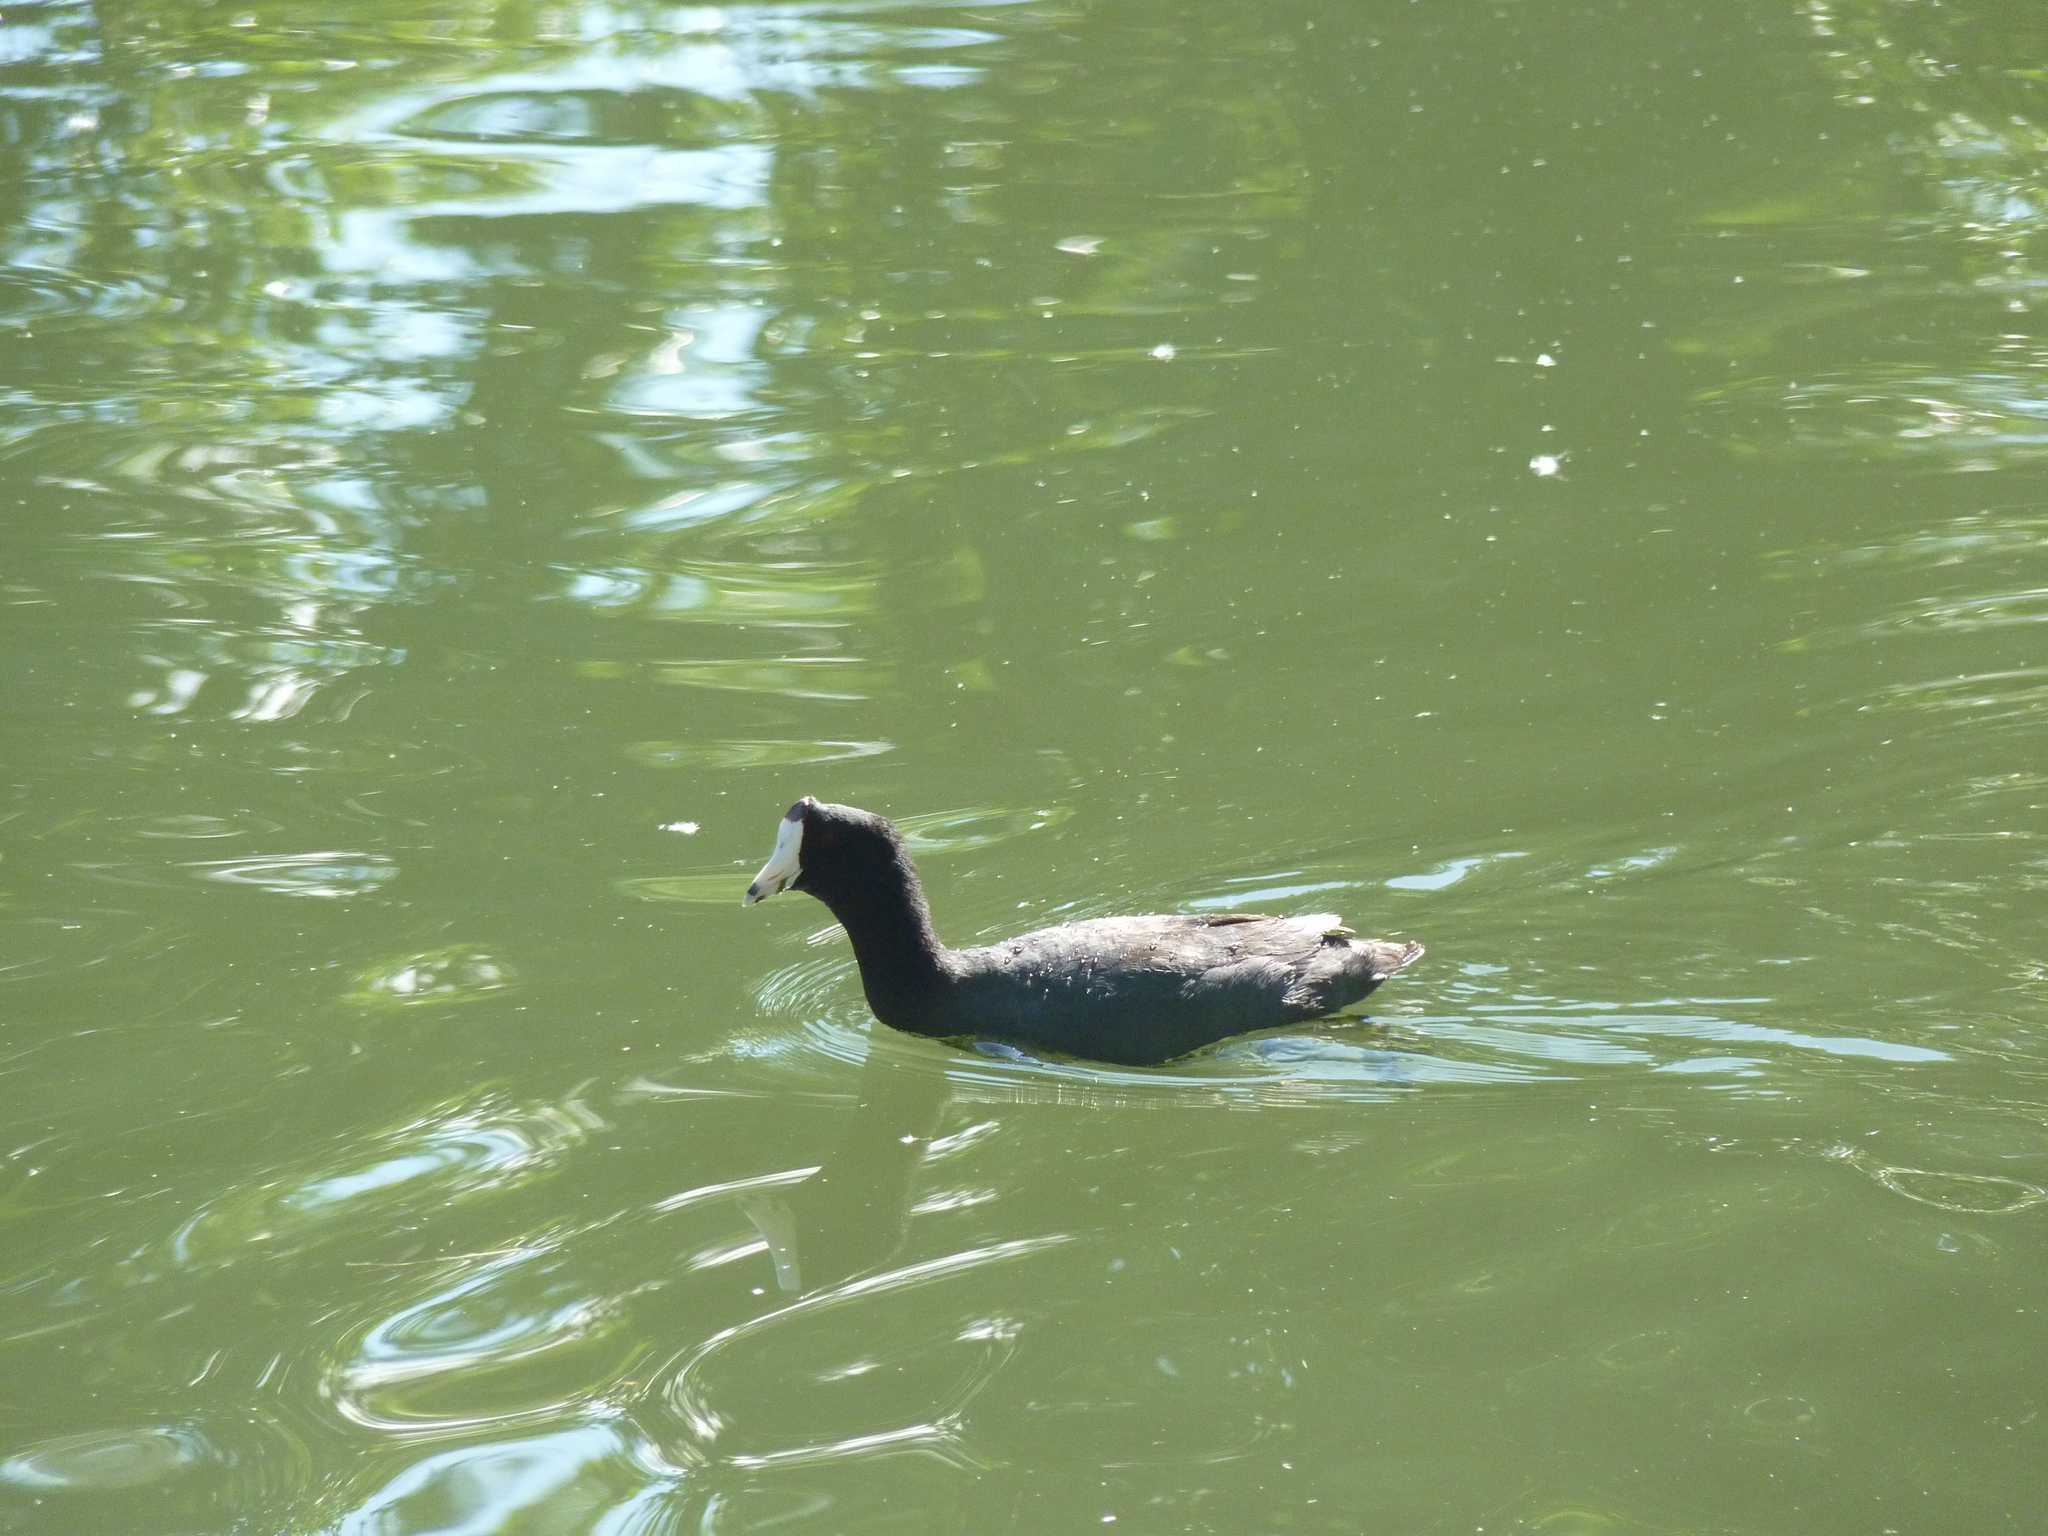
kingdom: Animalia
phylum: Chordata
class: Aves
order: Gruiformes
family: Rallidae
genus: Fulica
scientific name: Fulica americana
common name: American coot
